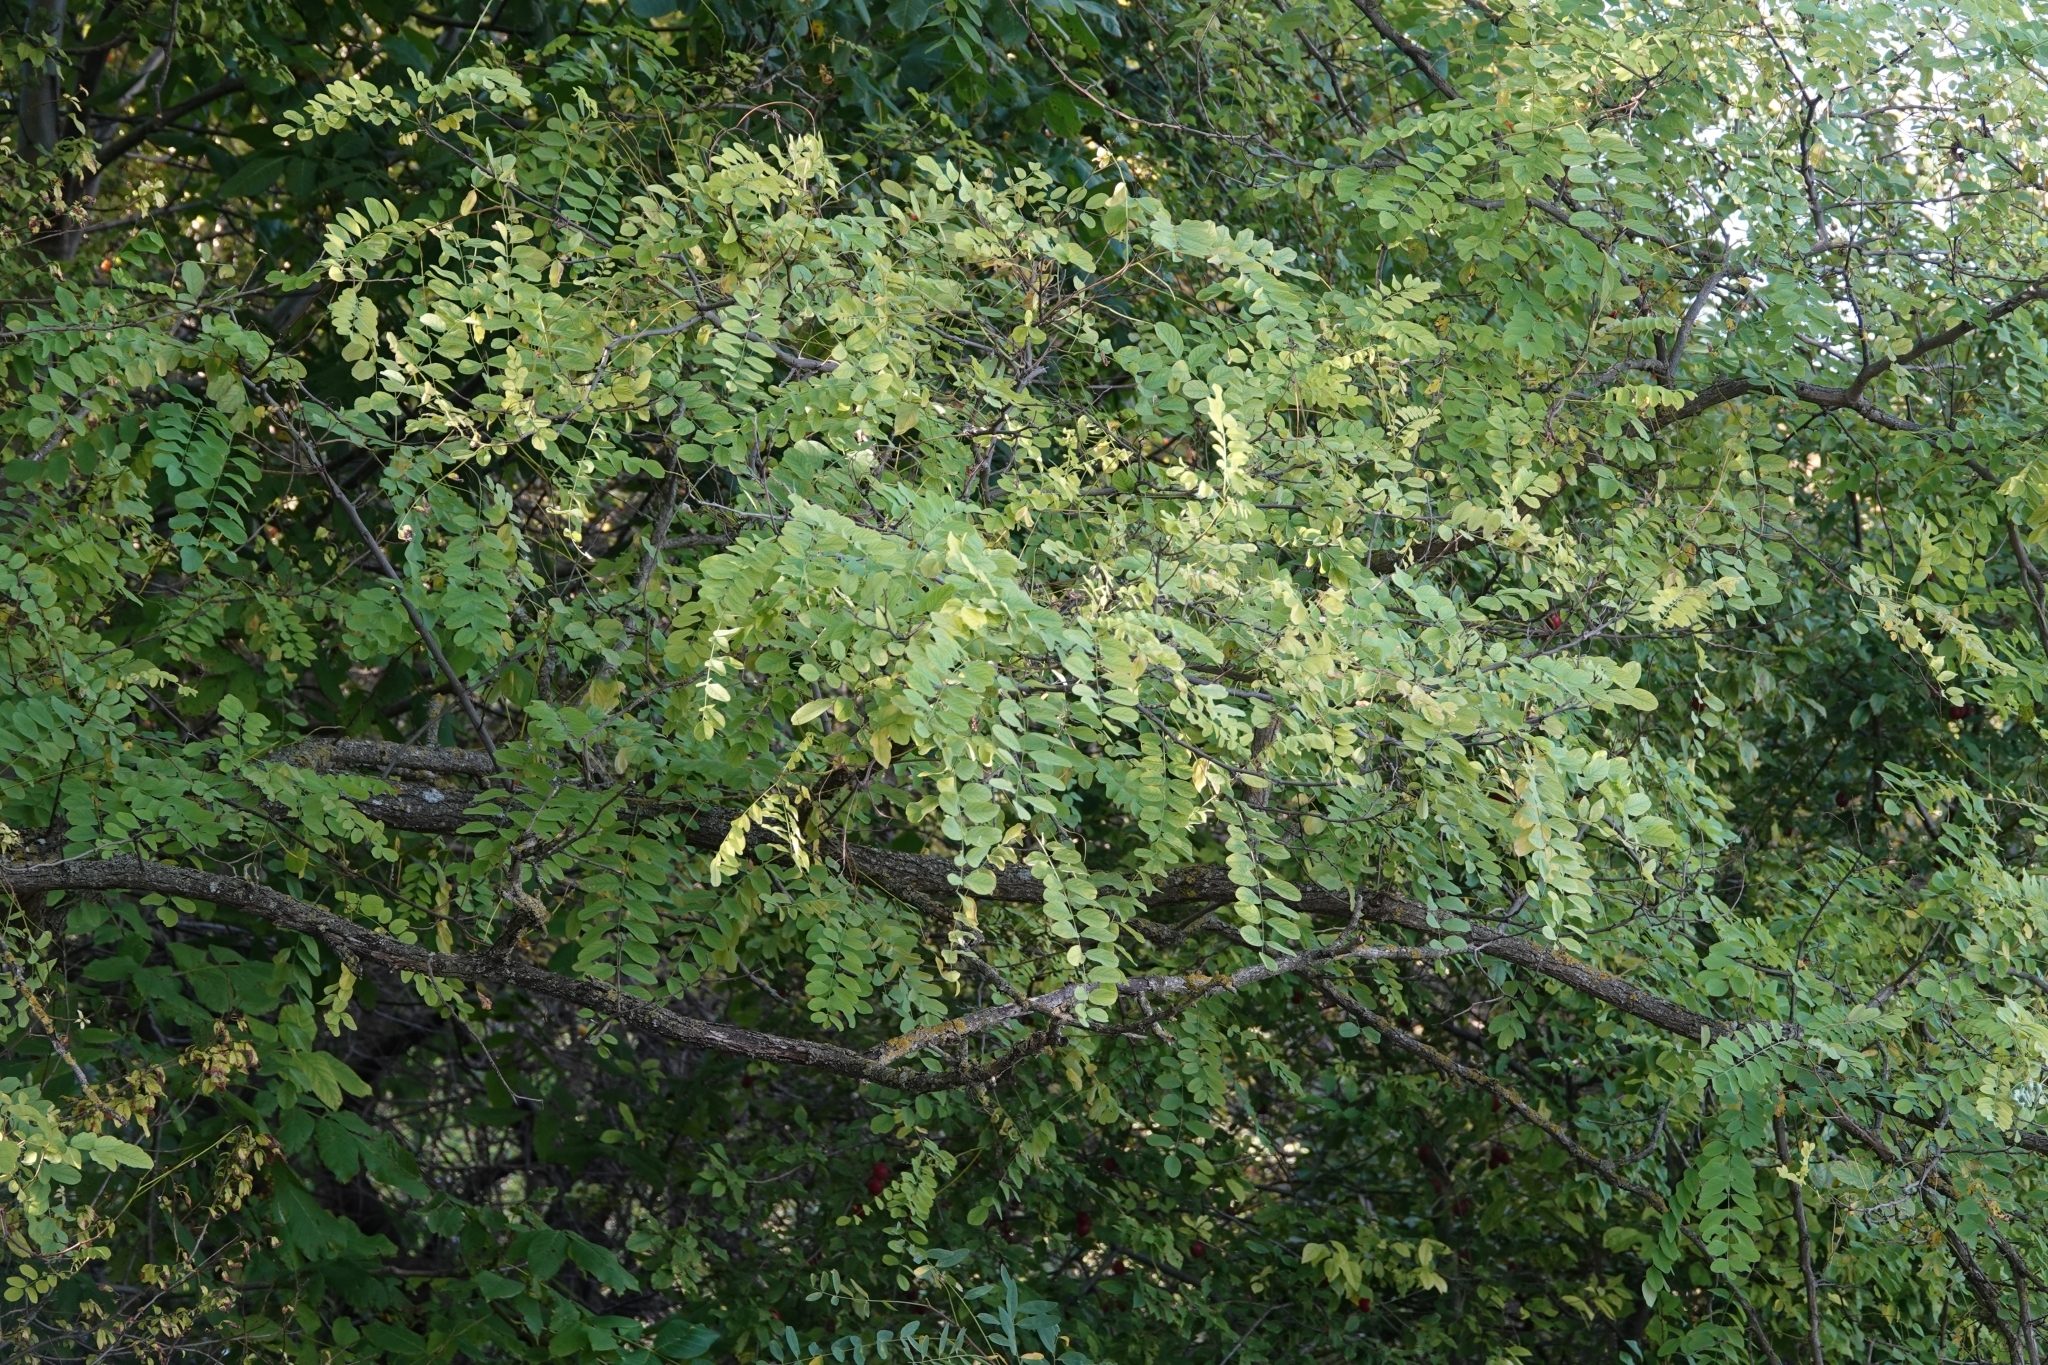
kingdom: Plantae
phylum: Tracheophyta
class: Magnoliopsida
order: Fabales
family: Fabaceae
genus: Robinia
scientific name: Robinia pseudoacacia
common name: Black locust
